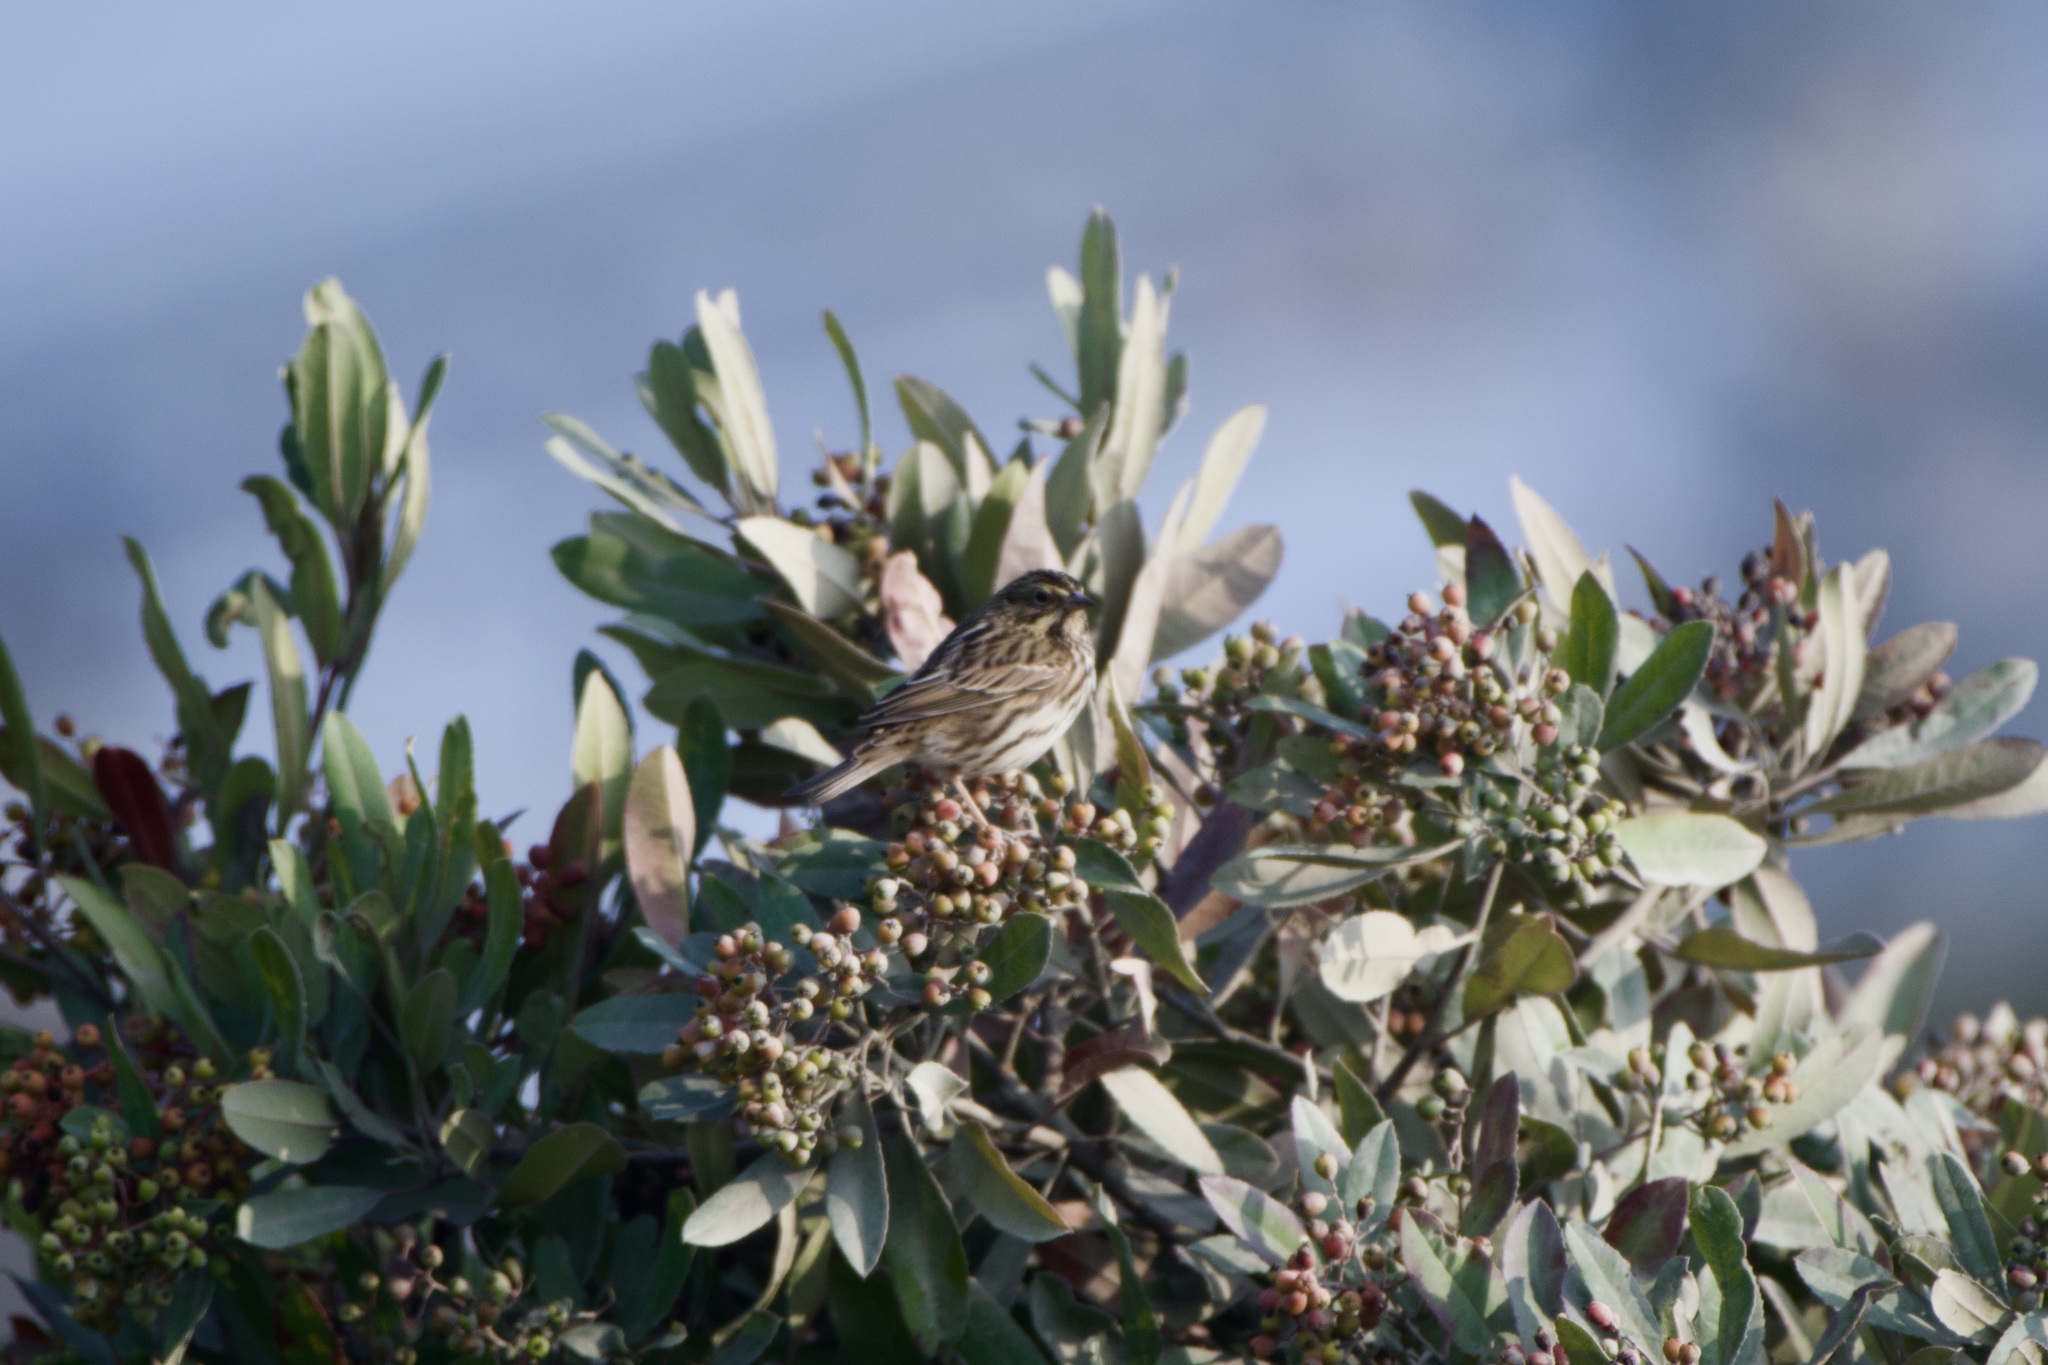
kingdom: Animalia
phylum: Chordata
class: Aves
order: Passeriformes
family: Passerellidae
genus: Passerculus
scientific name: Passerculus sandwichensis
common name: Savannah sparrow
